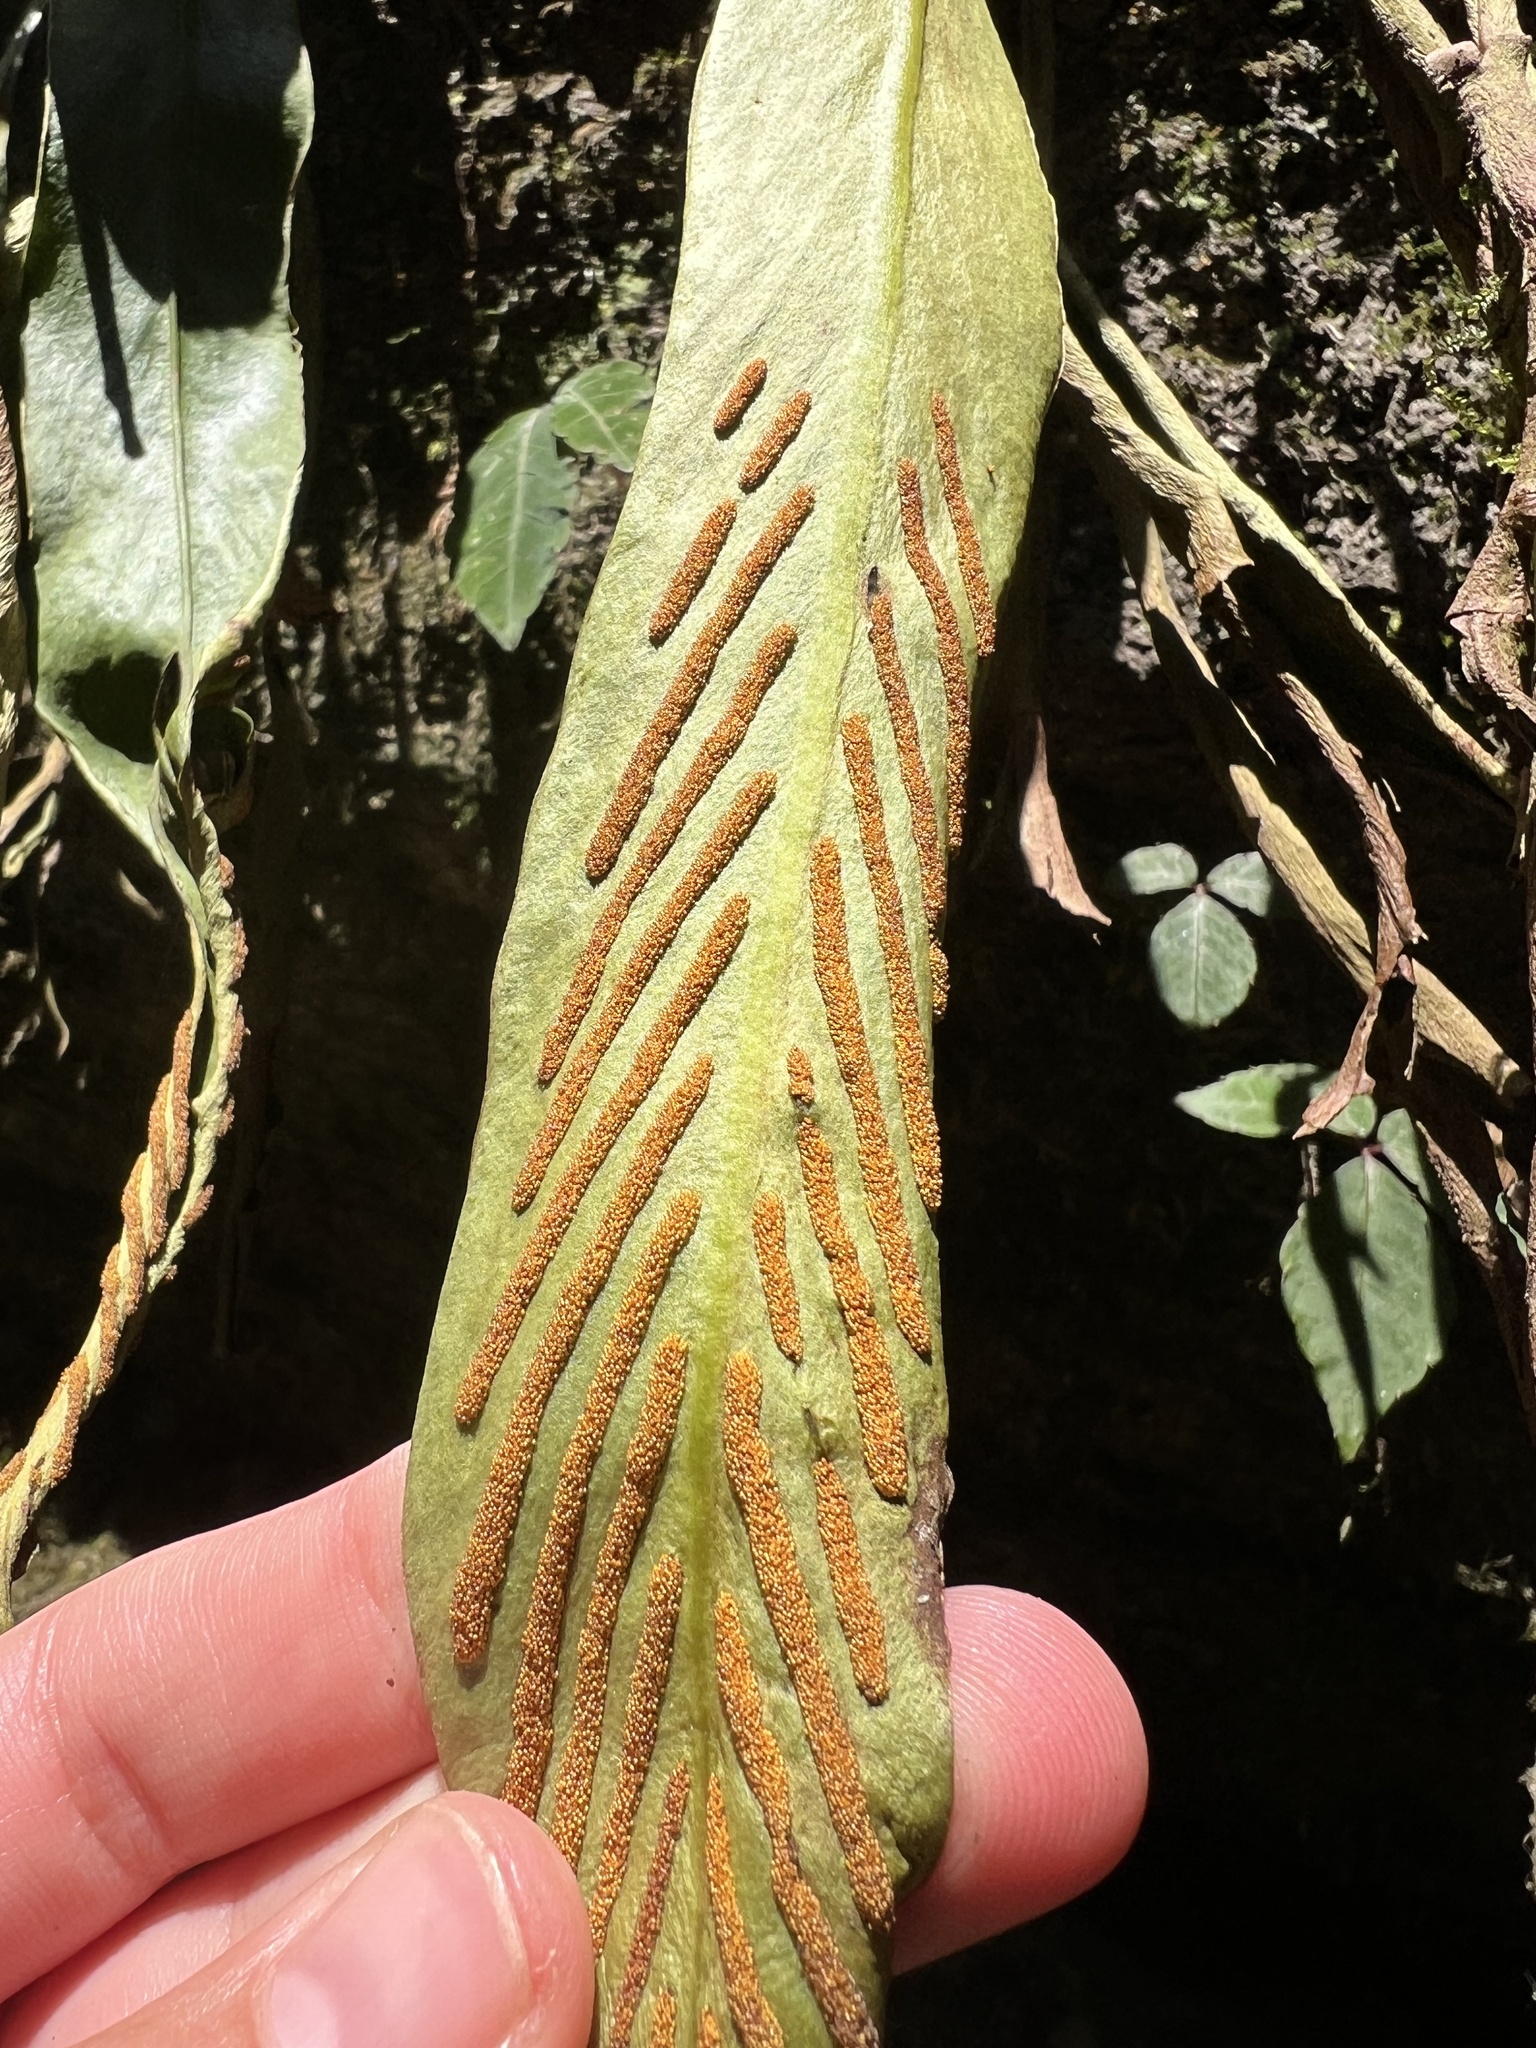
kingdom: Plantae
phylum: Tracheophyta
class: Polypodiopsida
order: Polypodiales
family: Polypodiaceae
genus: Loxogramme
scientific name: Loxogramme cuspidata
